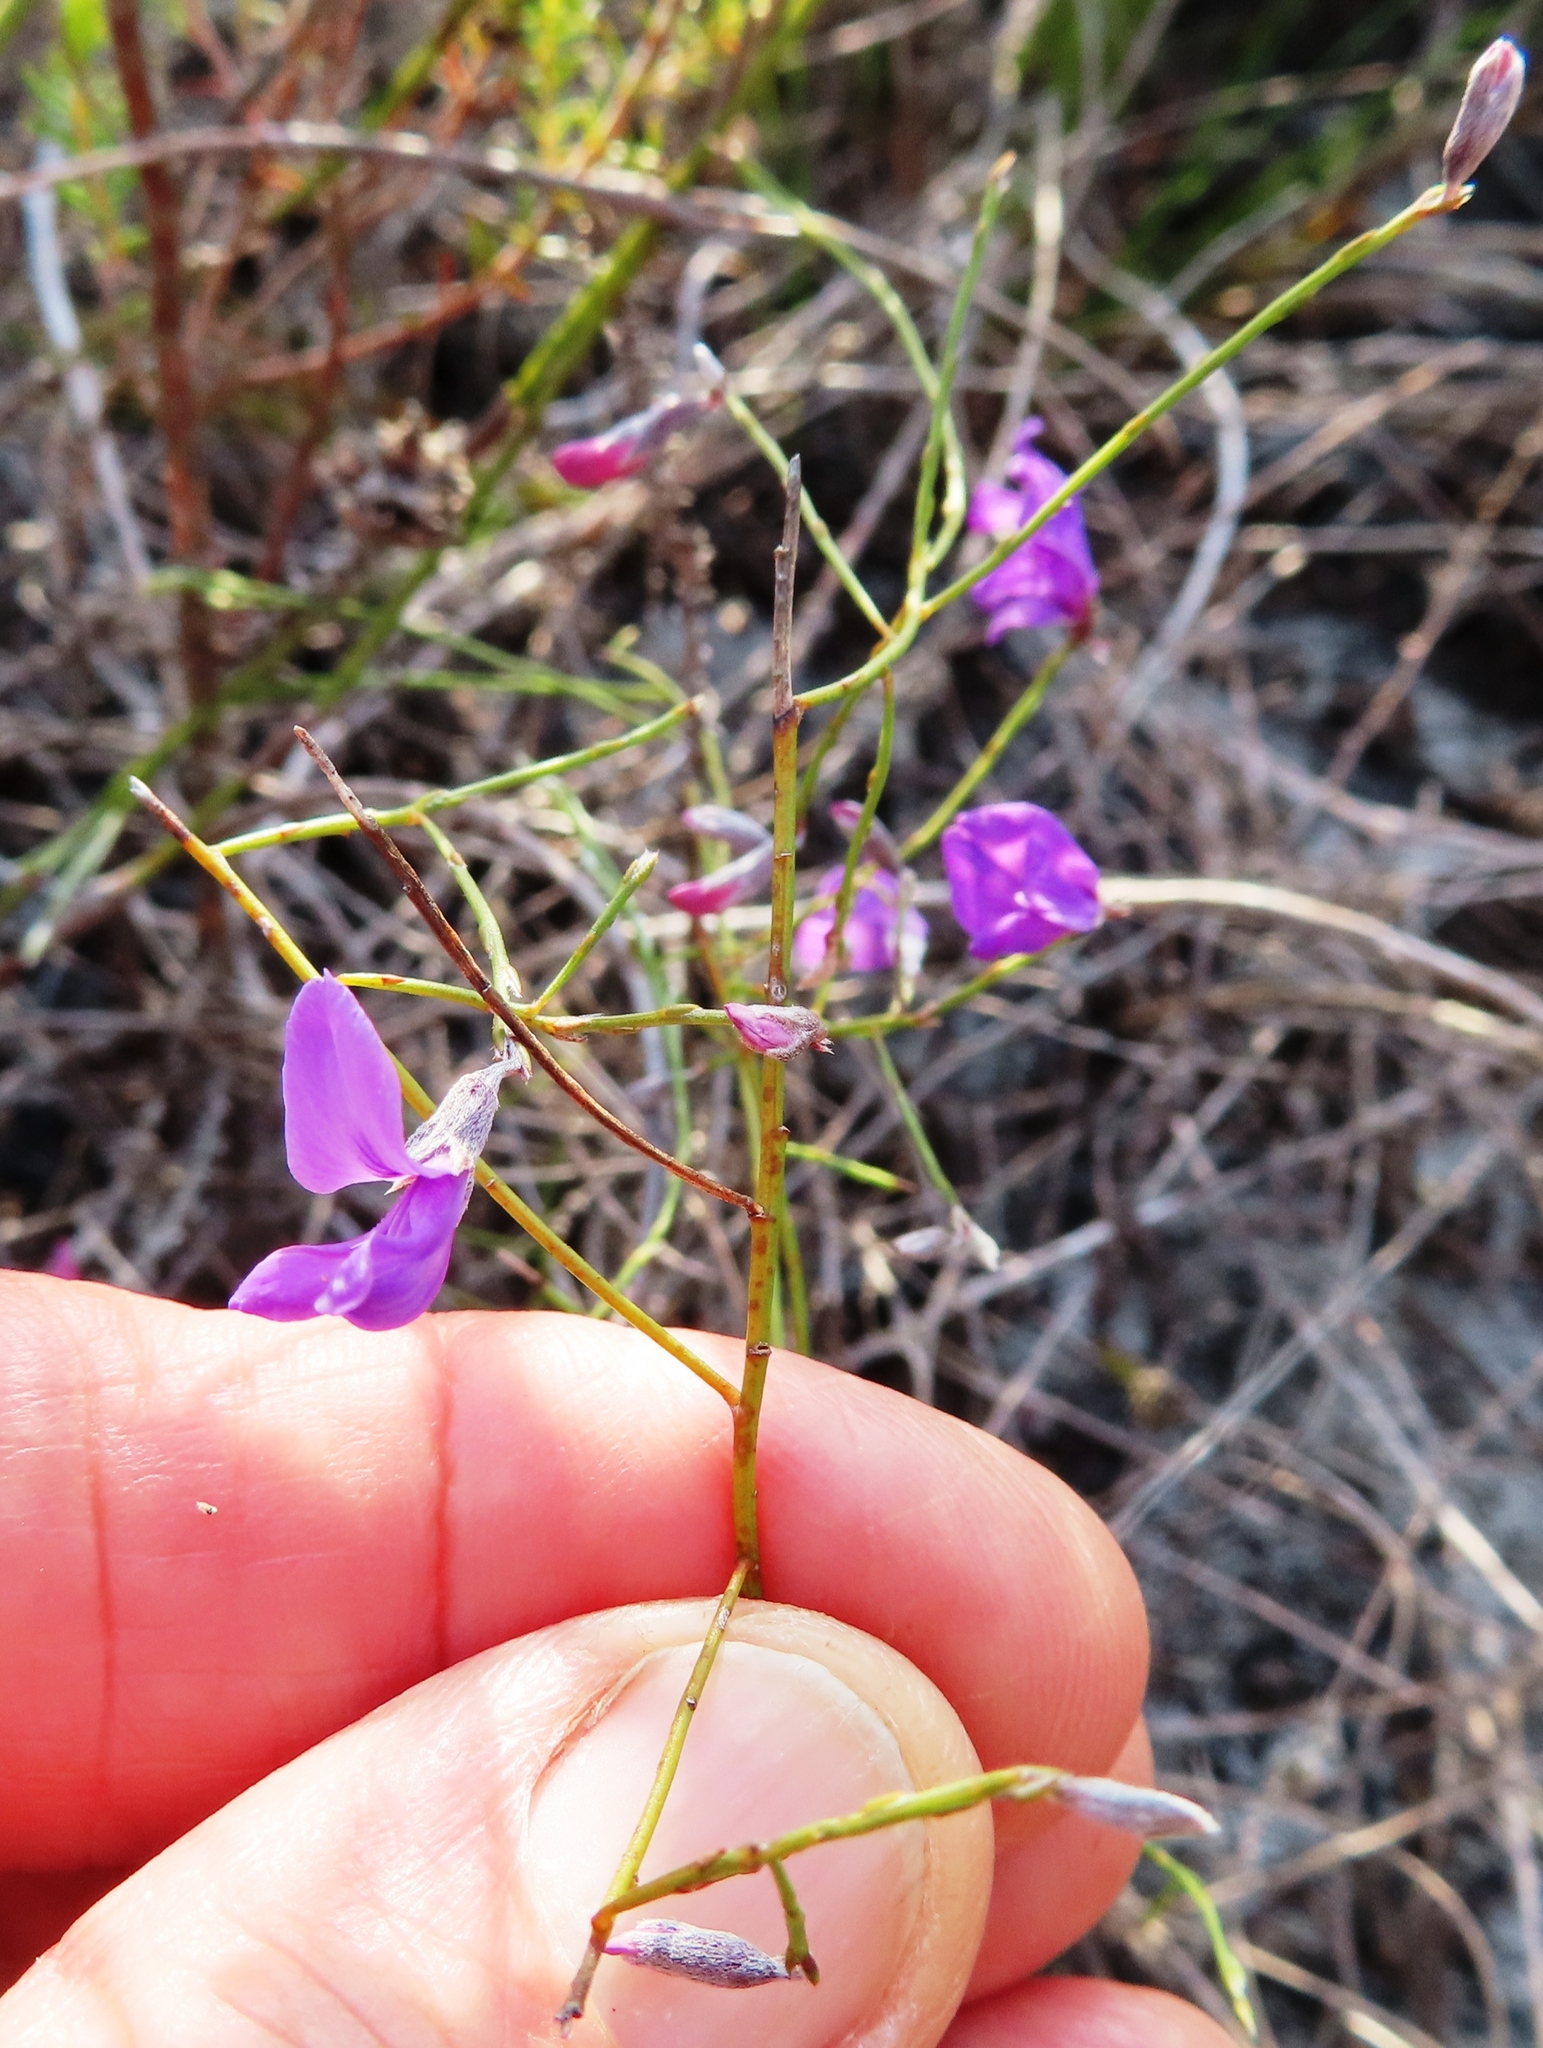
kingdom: Plantae
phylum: Tracheophyta
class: Magnoliopsida
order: Fabales
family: Fabaceae
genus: Amphithalea
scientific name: Amphithalea biovulata
